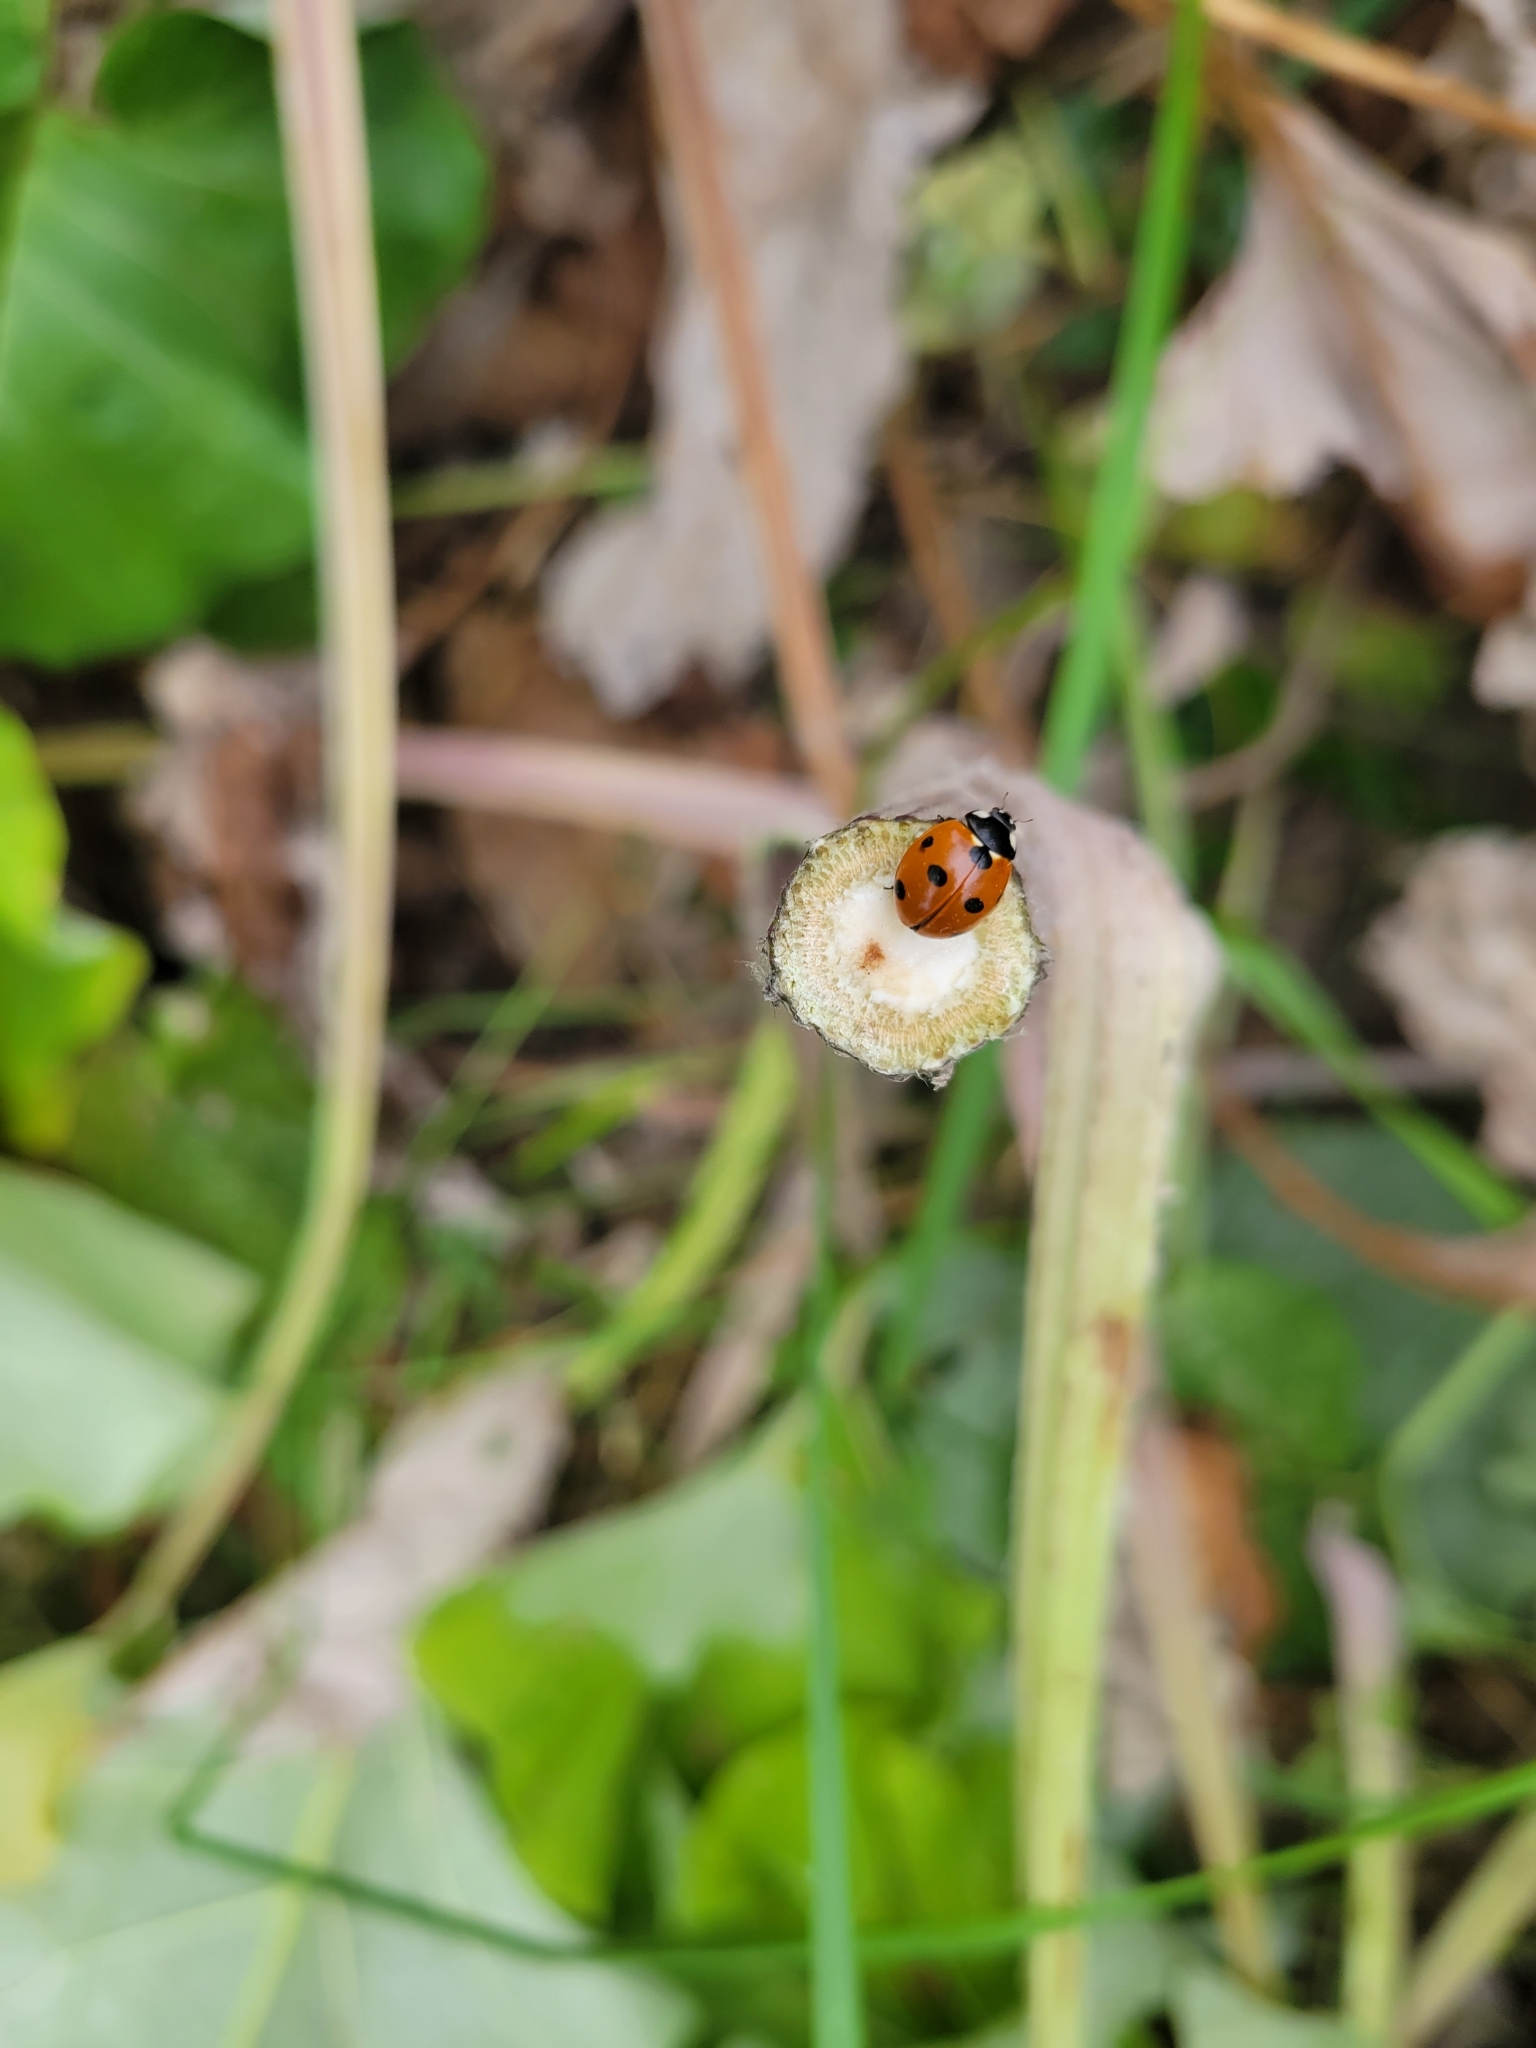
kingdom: Animalia
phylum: Arthropoda
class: Insecta
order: Coleoptera
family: Coccinellidae
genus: Coccinella
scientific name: Coccinella septempunctata
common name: Sevenspotted lady beetle
